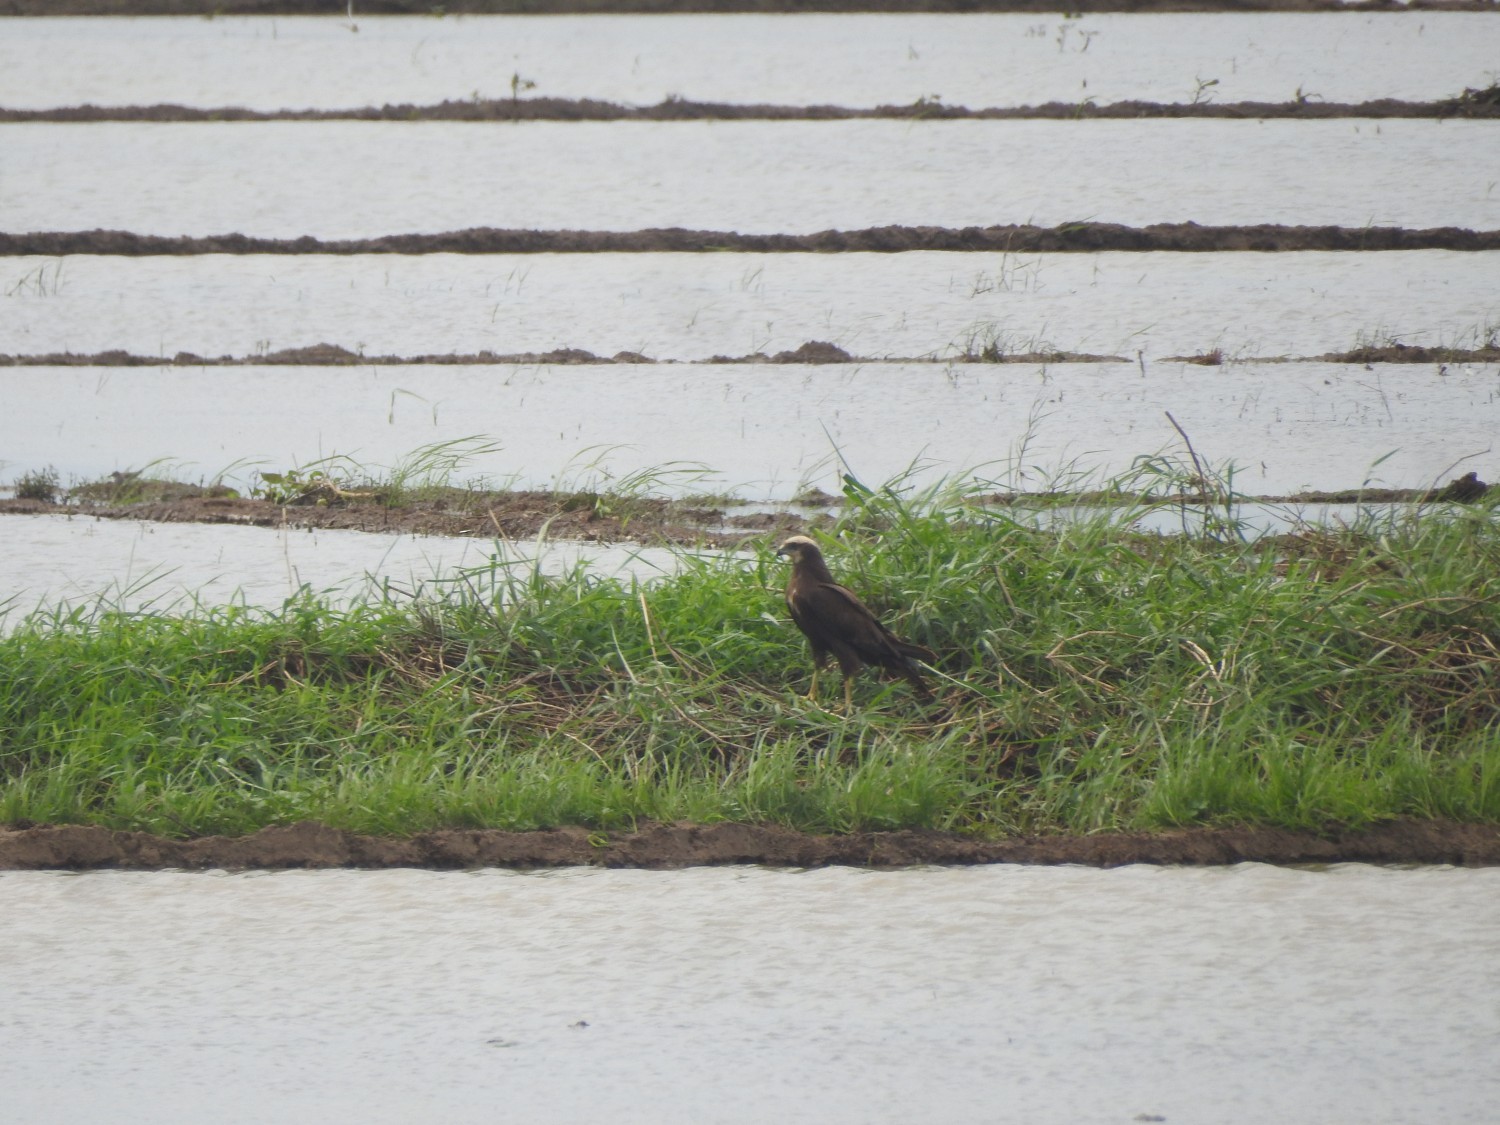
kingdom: Animalia
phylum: Chordata
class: Aves
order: Accipitriformes
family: Accipitridae
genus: Circus
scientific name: Circus aeruginosus
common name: Western marsh harrier
